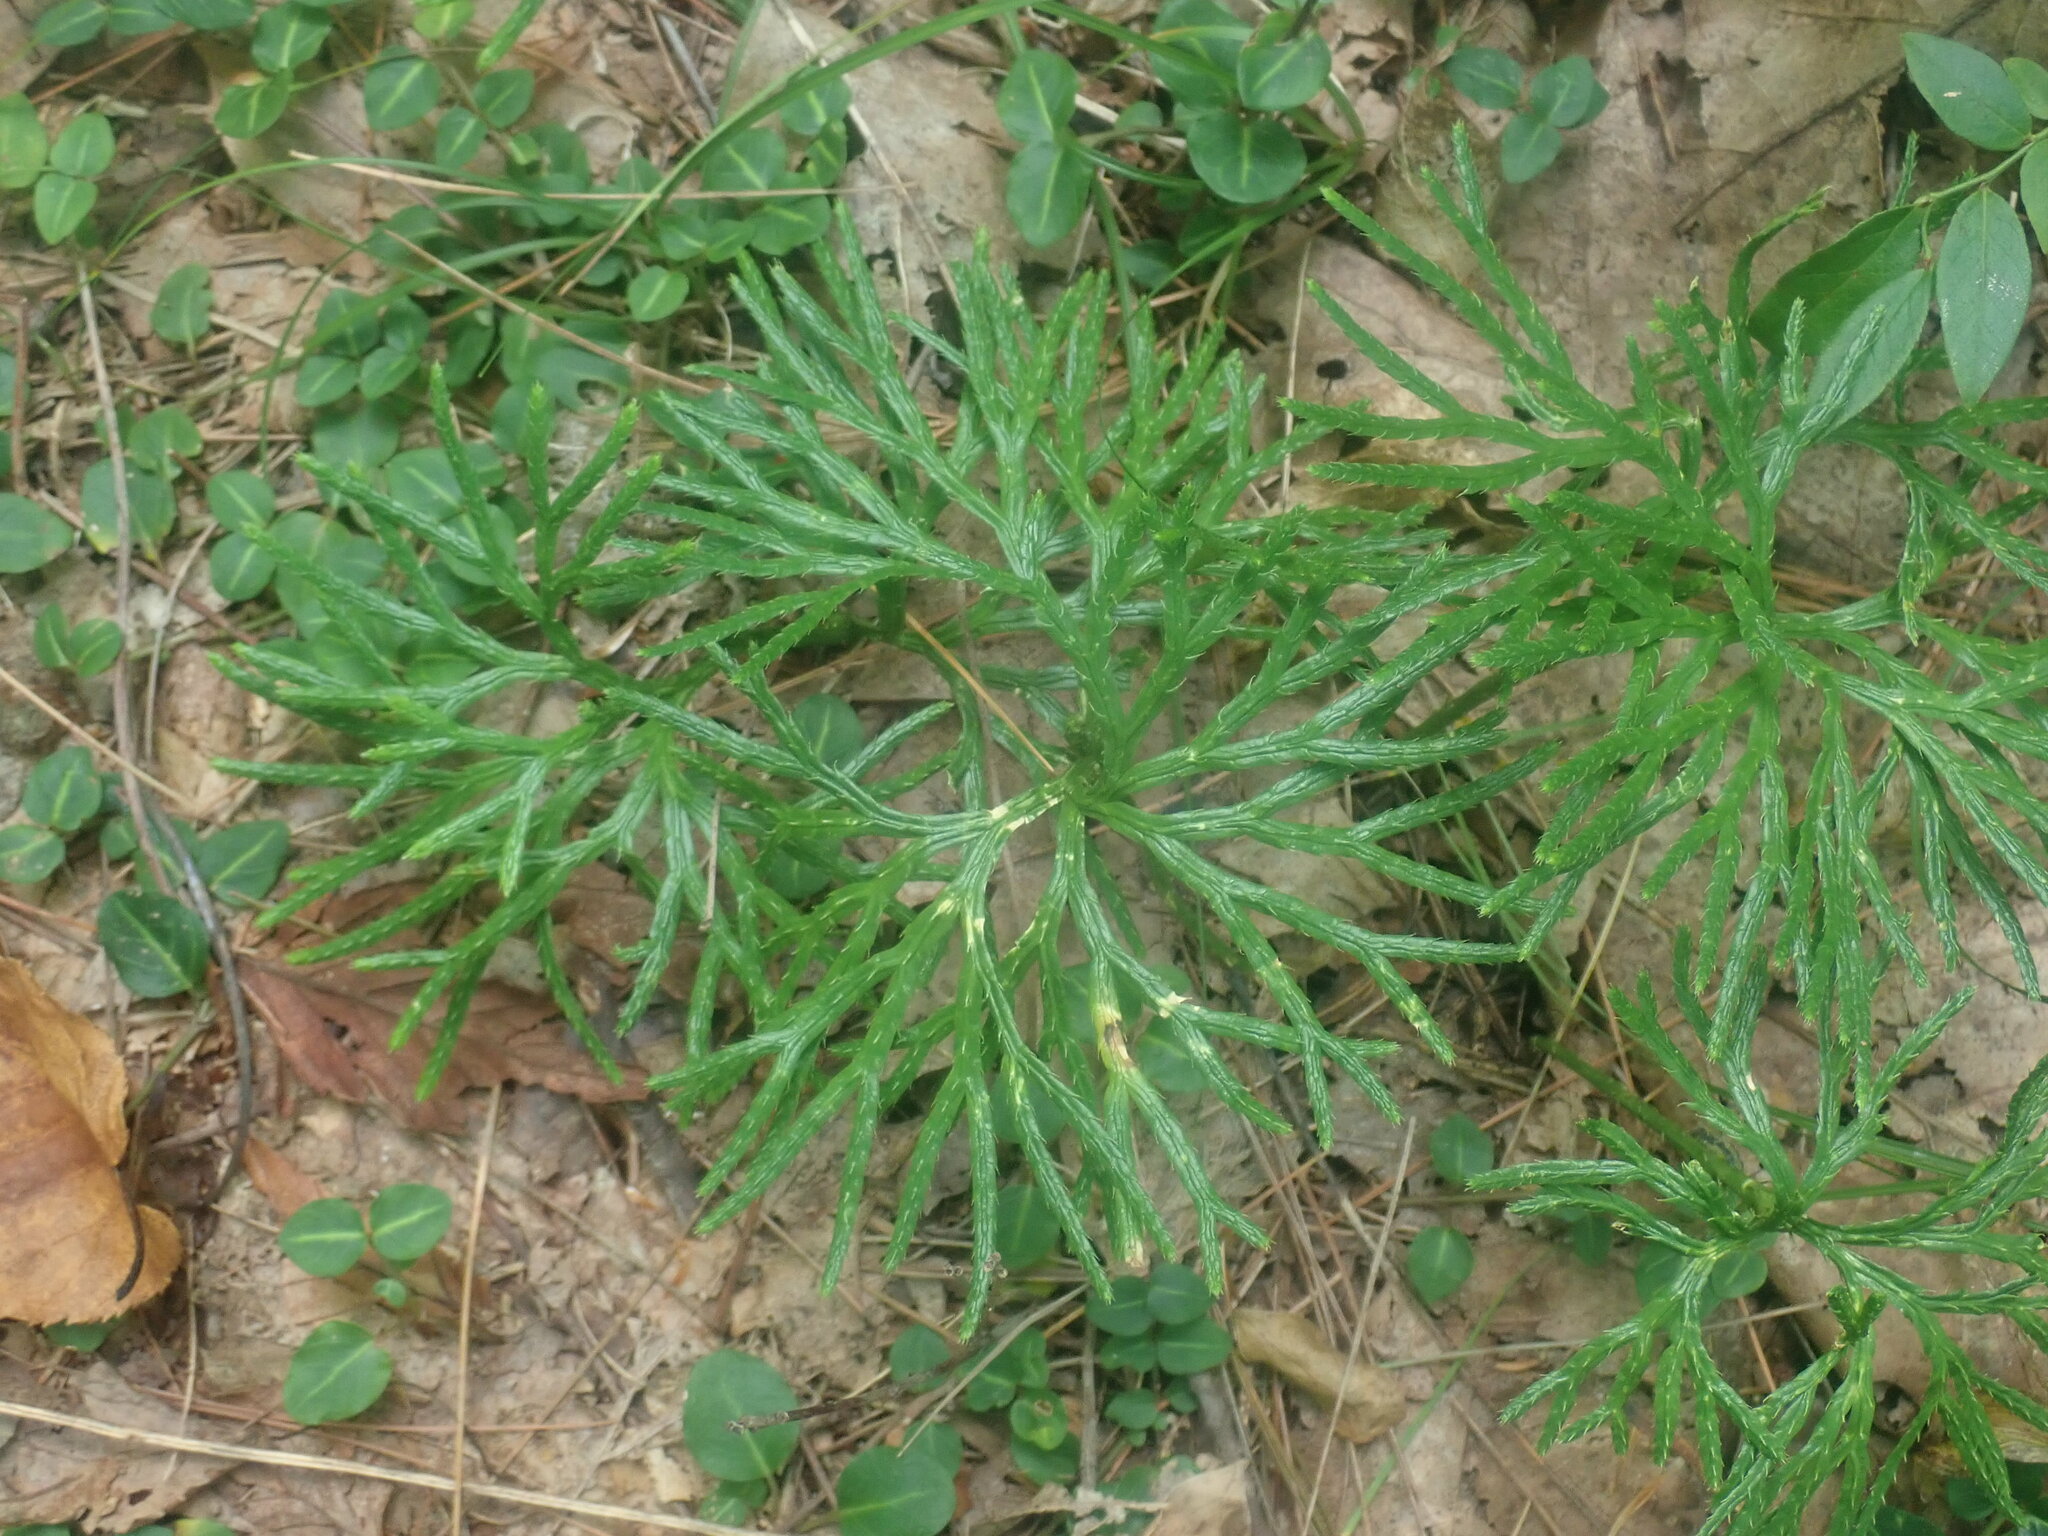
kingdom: Plantae
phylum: Tracheophyta
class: Lycopodiopsida
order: Lycopodiales
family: Lycopodiaceae
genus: Diphasiastrum
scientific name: Diphasiastrum digitatum
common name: Southern running-pine
